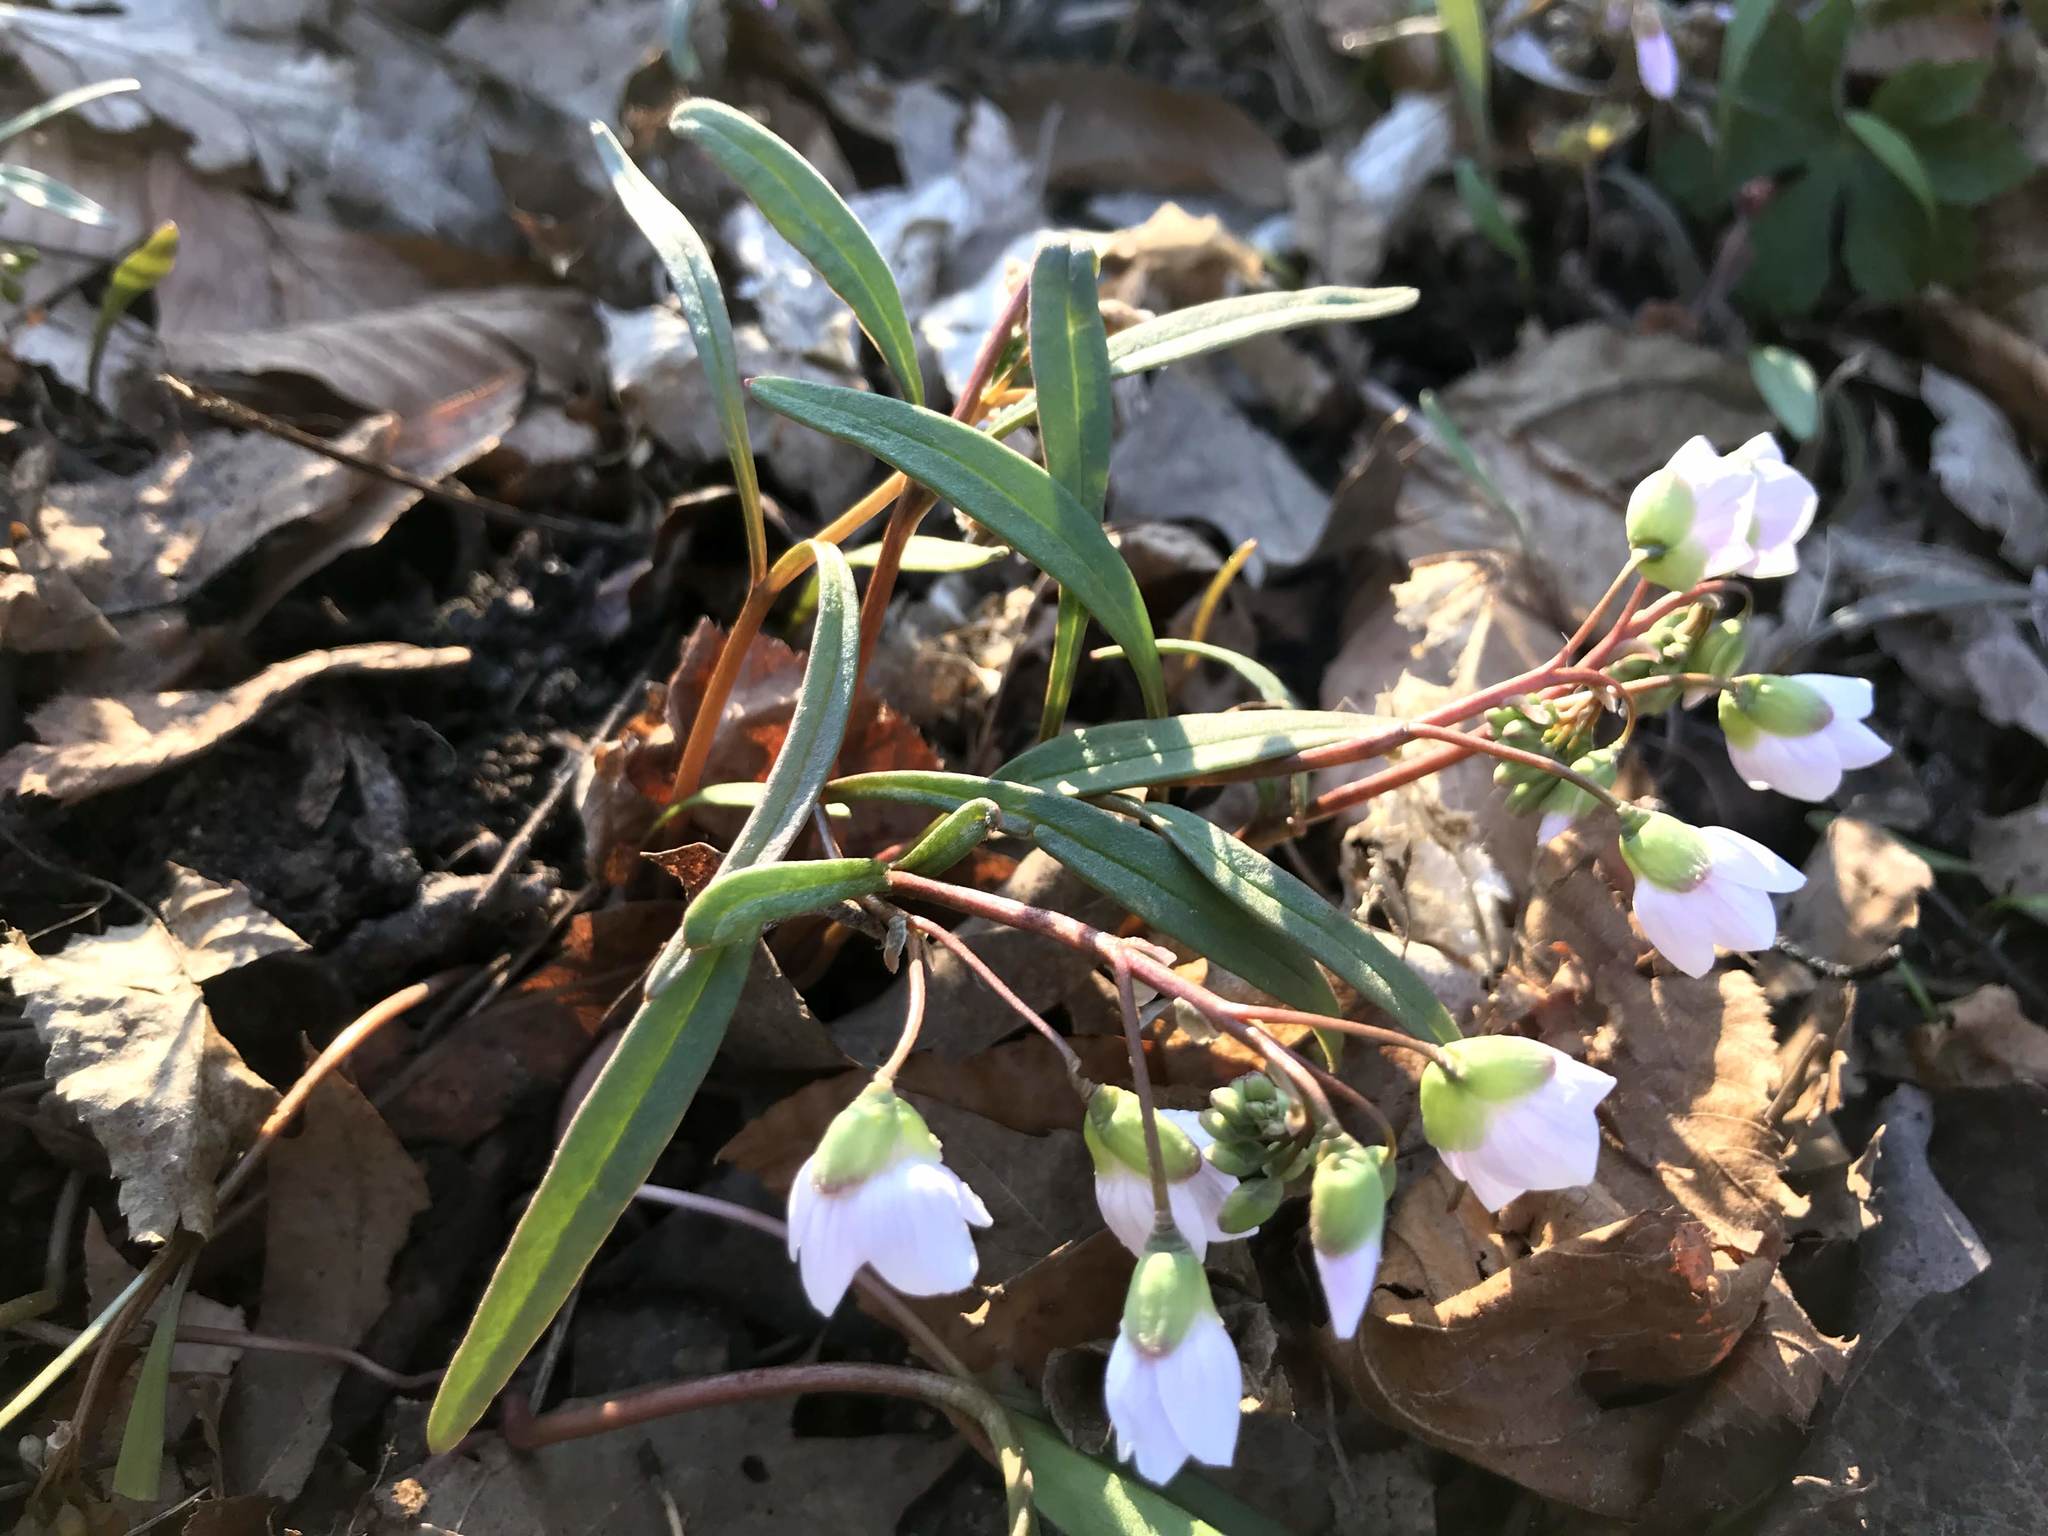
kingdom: Plantae
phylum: Tracheophyta
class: Magnoliopsida
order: Caryophyllales
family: Montiaceae
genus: Claytonia
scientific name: Claytonia virginica
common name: Virginia springbeauty
